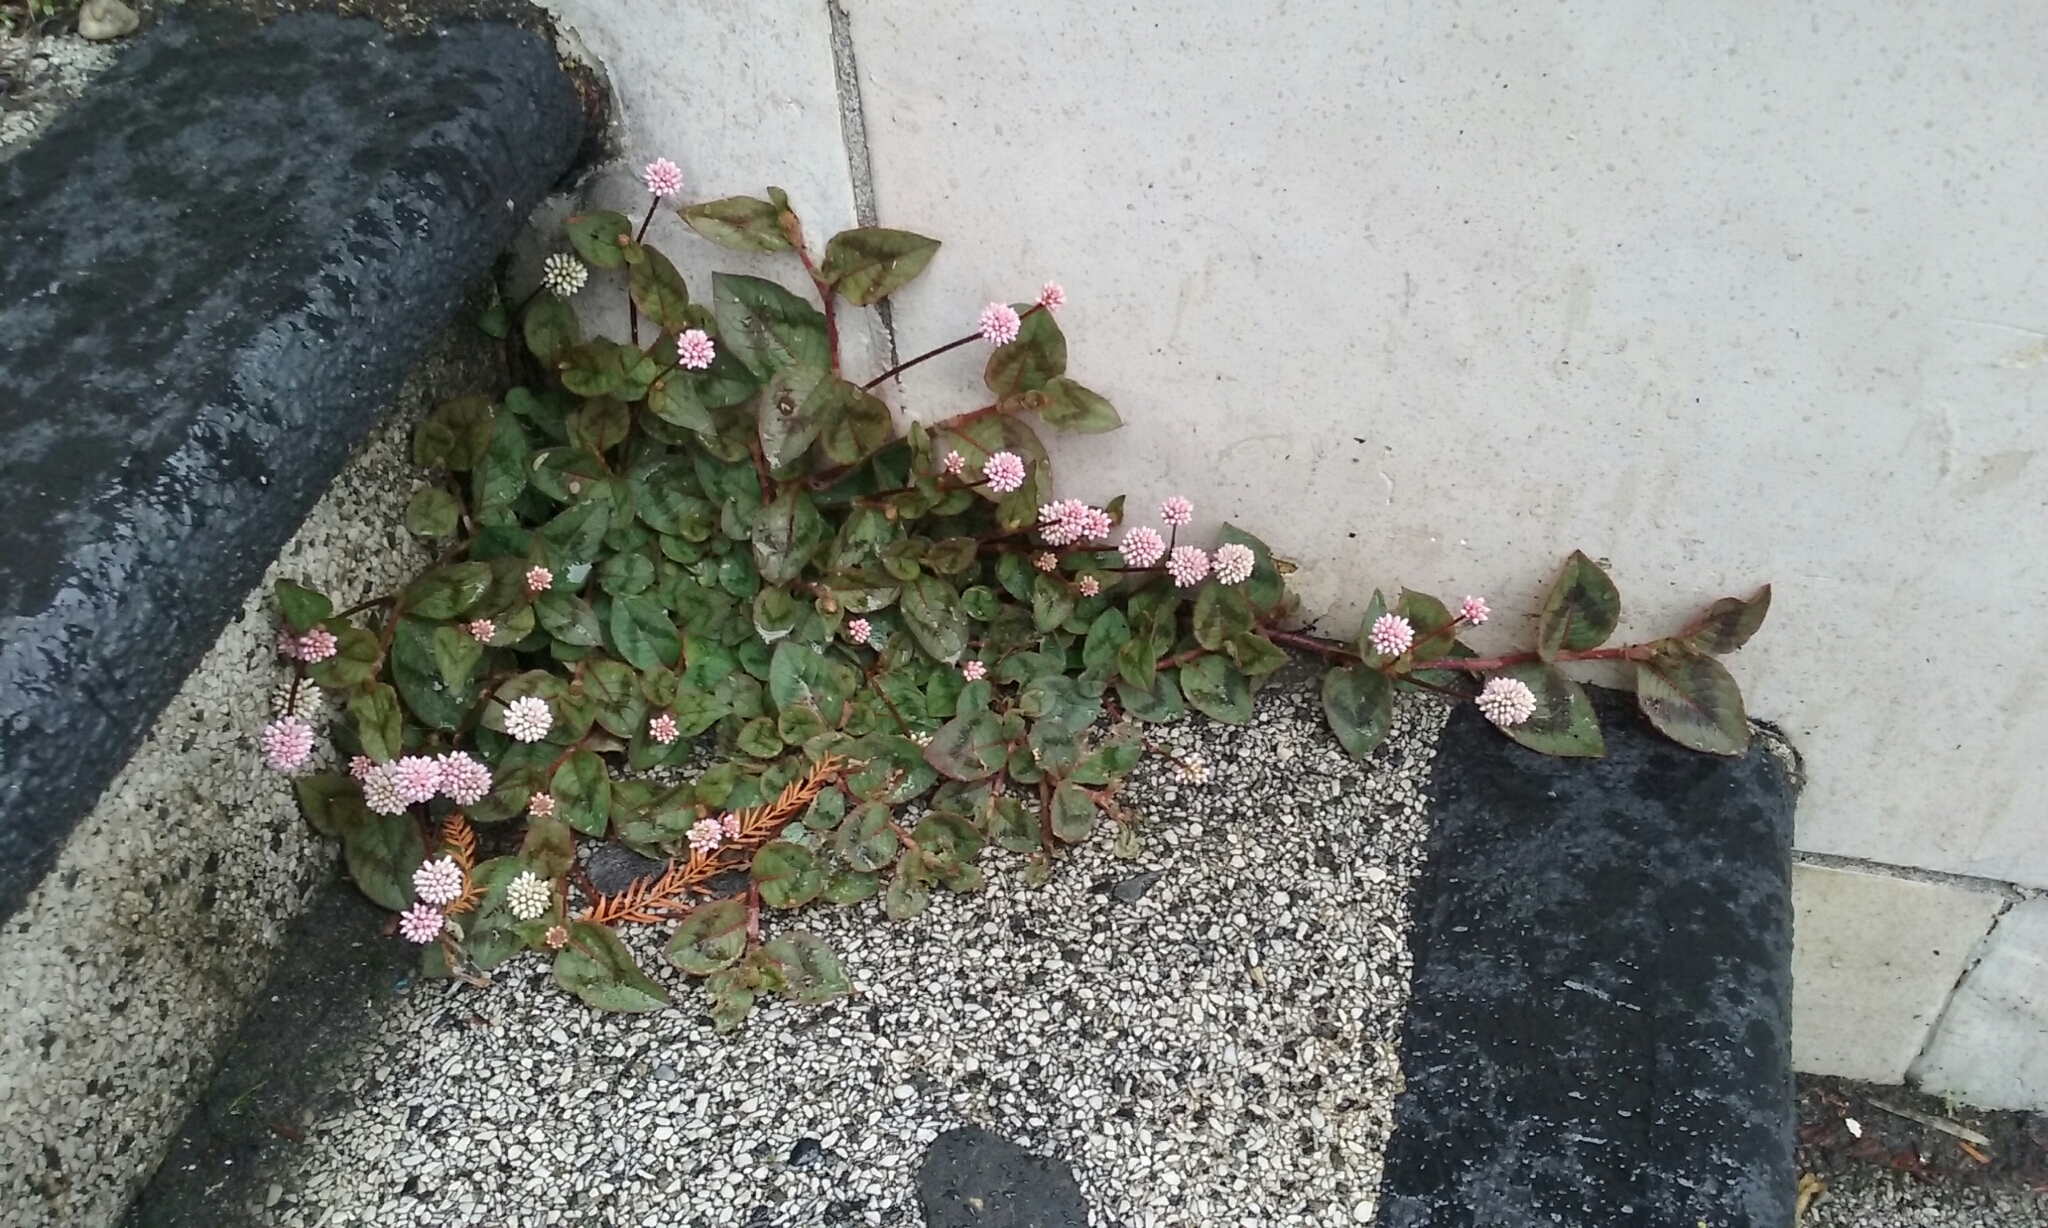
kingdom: Plantae
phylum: Tracheophyta
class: Magnoliopsida
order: Caryophyllales
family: Polygonaceae
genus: Persicaria
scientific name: Persicaria capitata
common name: Pinkhead smartweed
